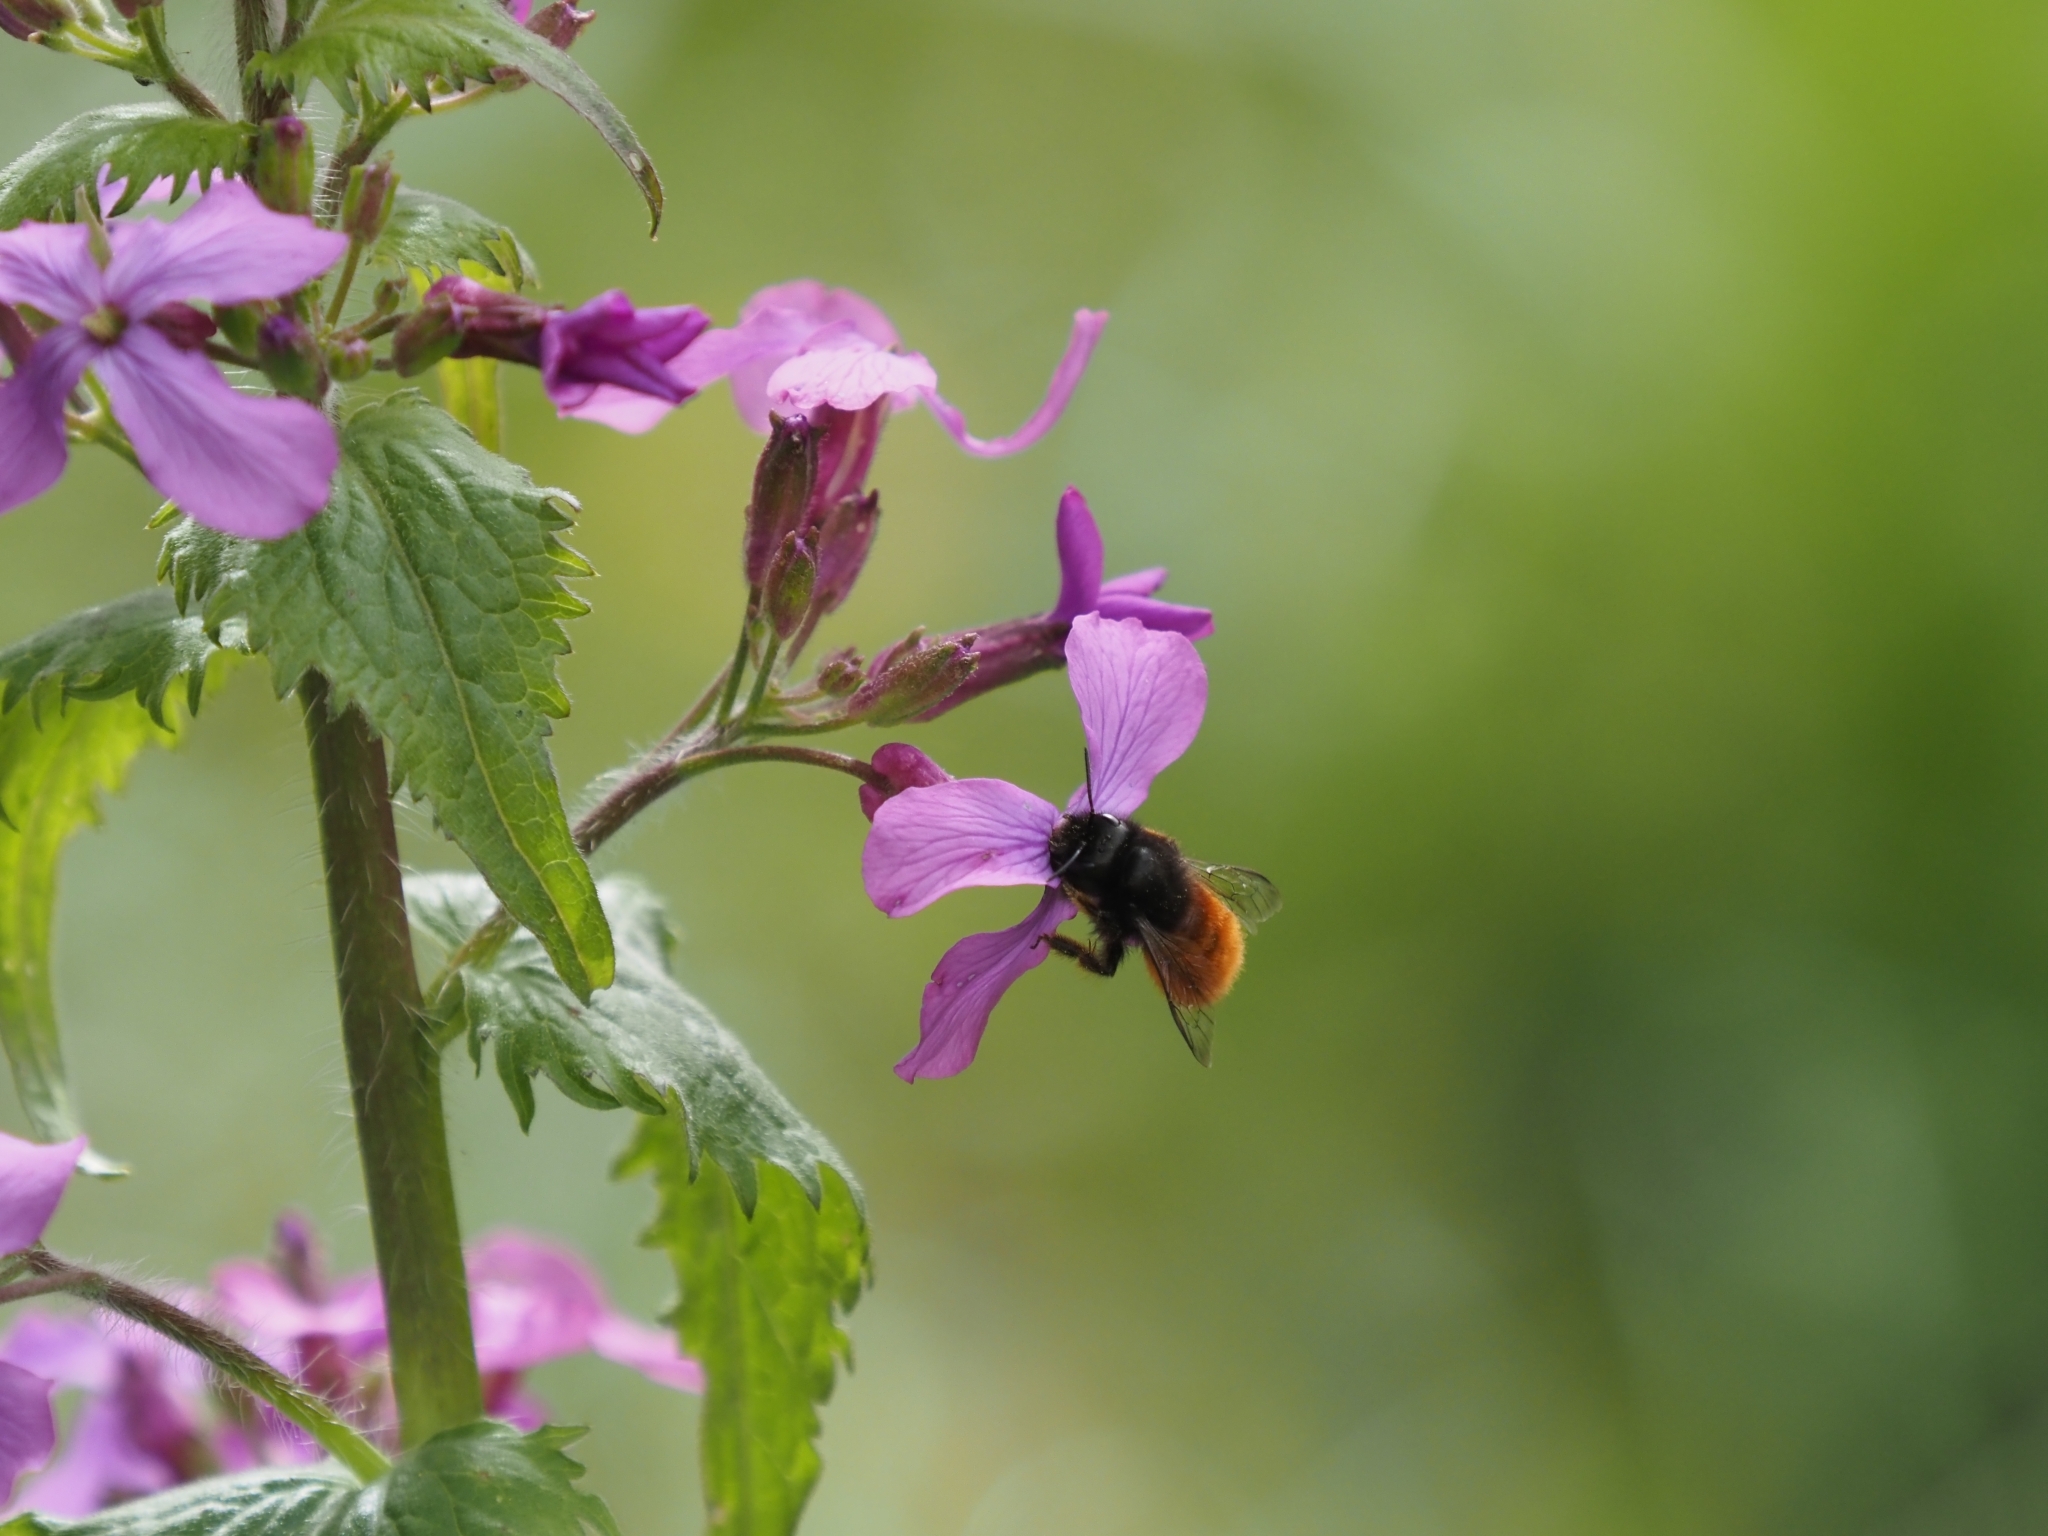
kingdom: Animalia
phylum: Arthropoda
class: Insecta
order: Hymenoptera
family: Megachilidae
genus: Osmia
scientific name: Osmia cornuta
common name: Mason bee
